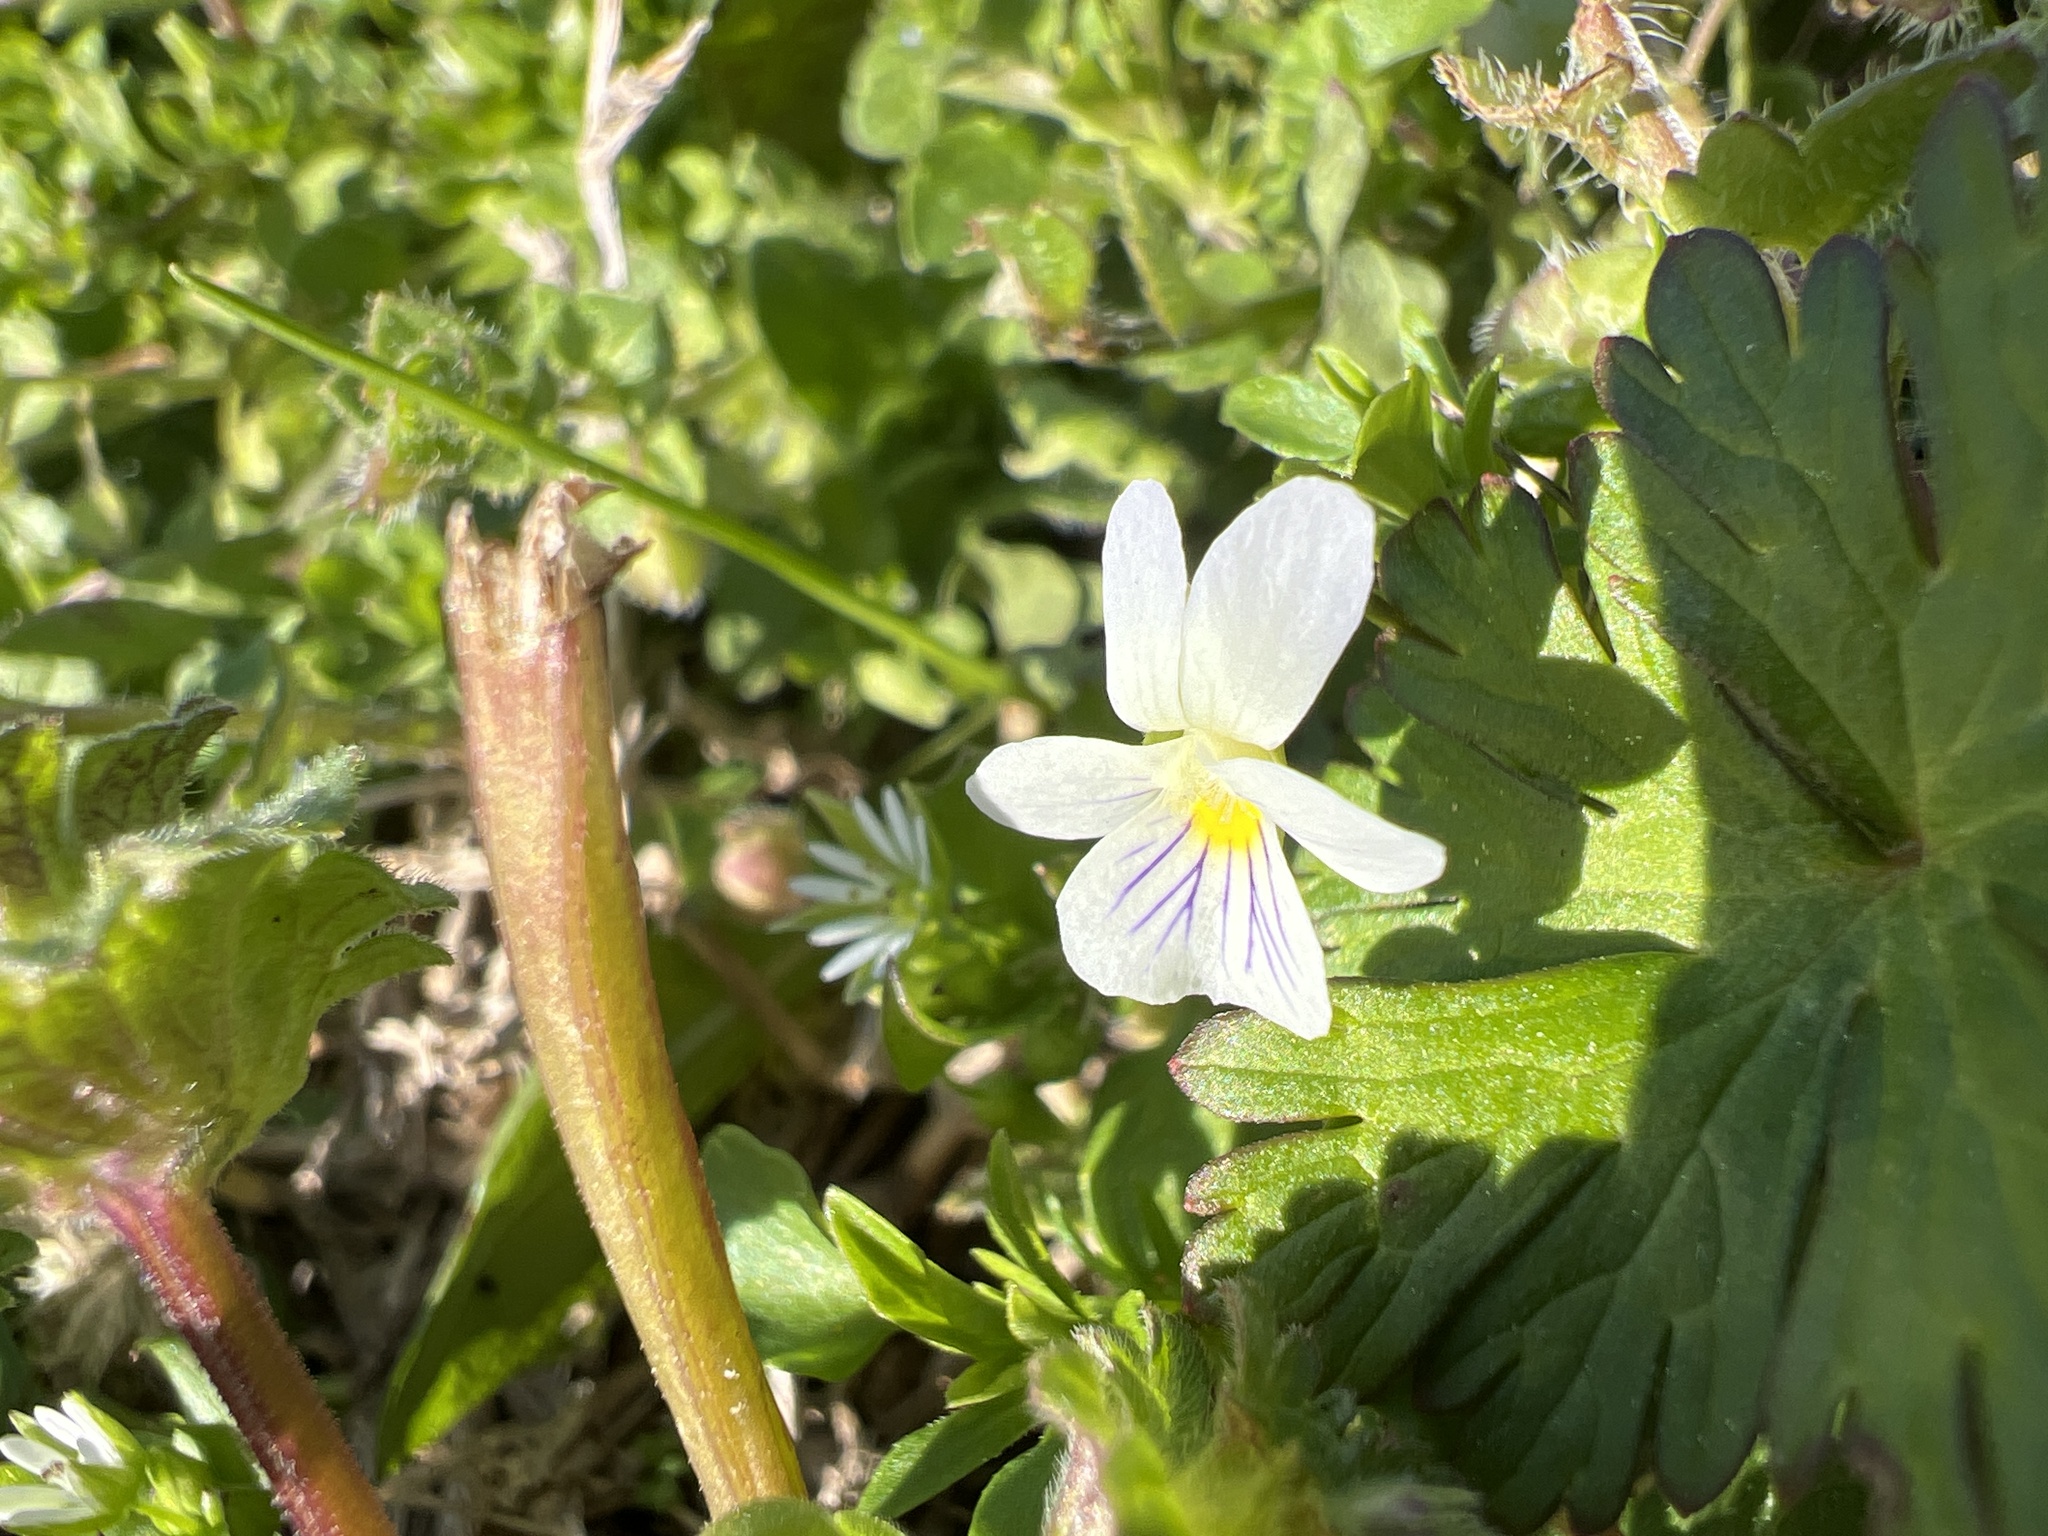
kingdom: Plantae
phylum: Tracheophyta
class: Magnoliopsida
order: Malpighiales
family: Violaceae
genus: Viola
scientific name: Viola rafinesquei
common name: American field pansy
